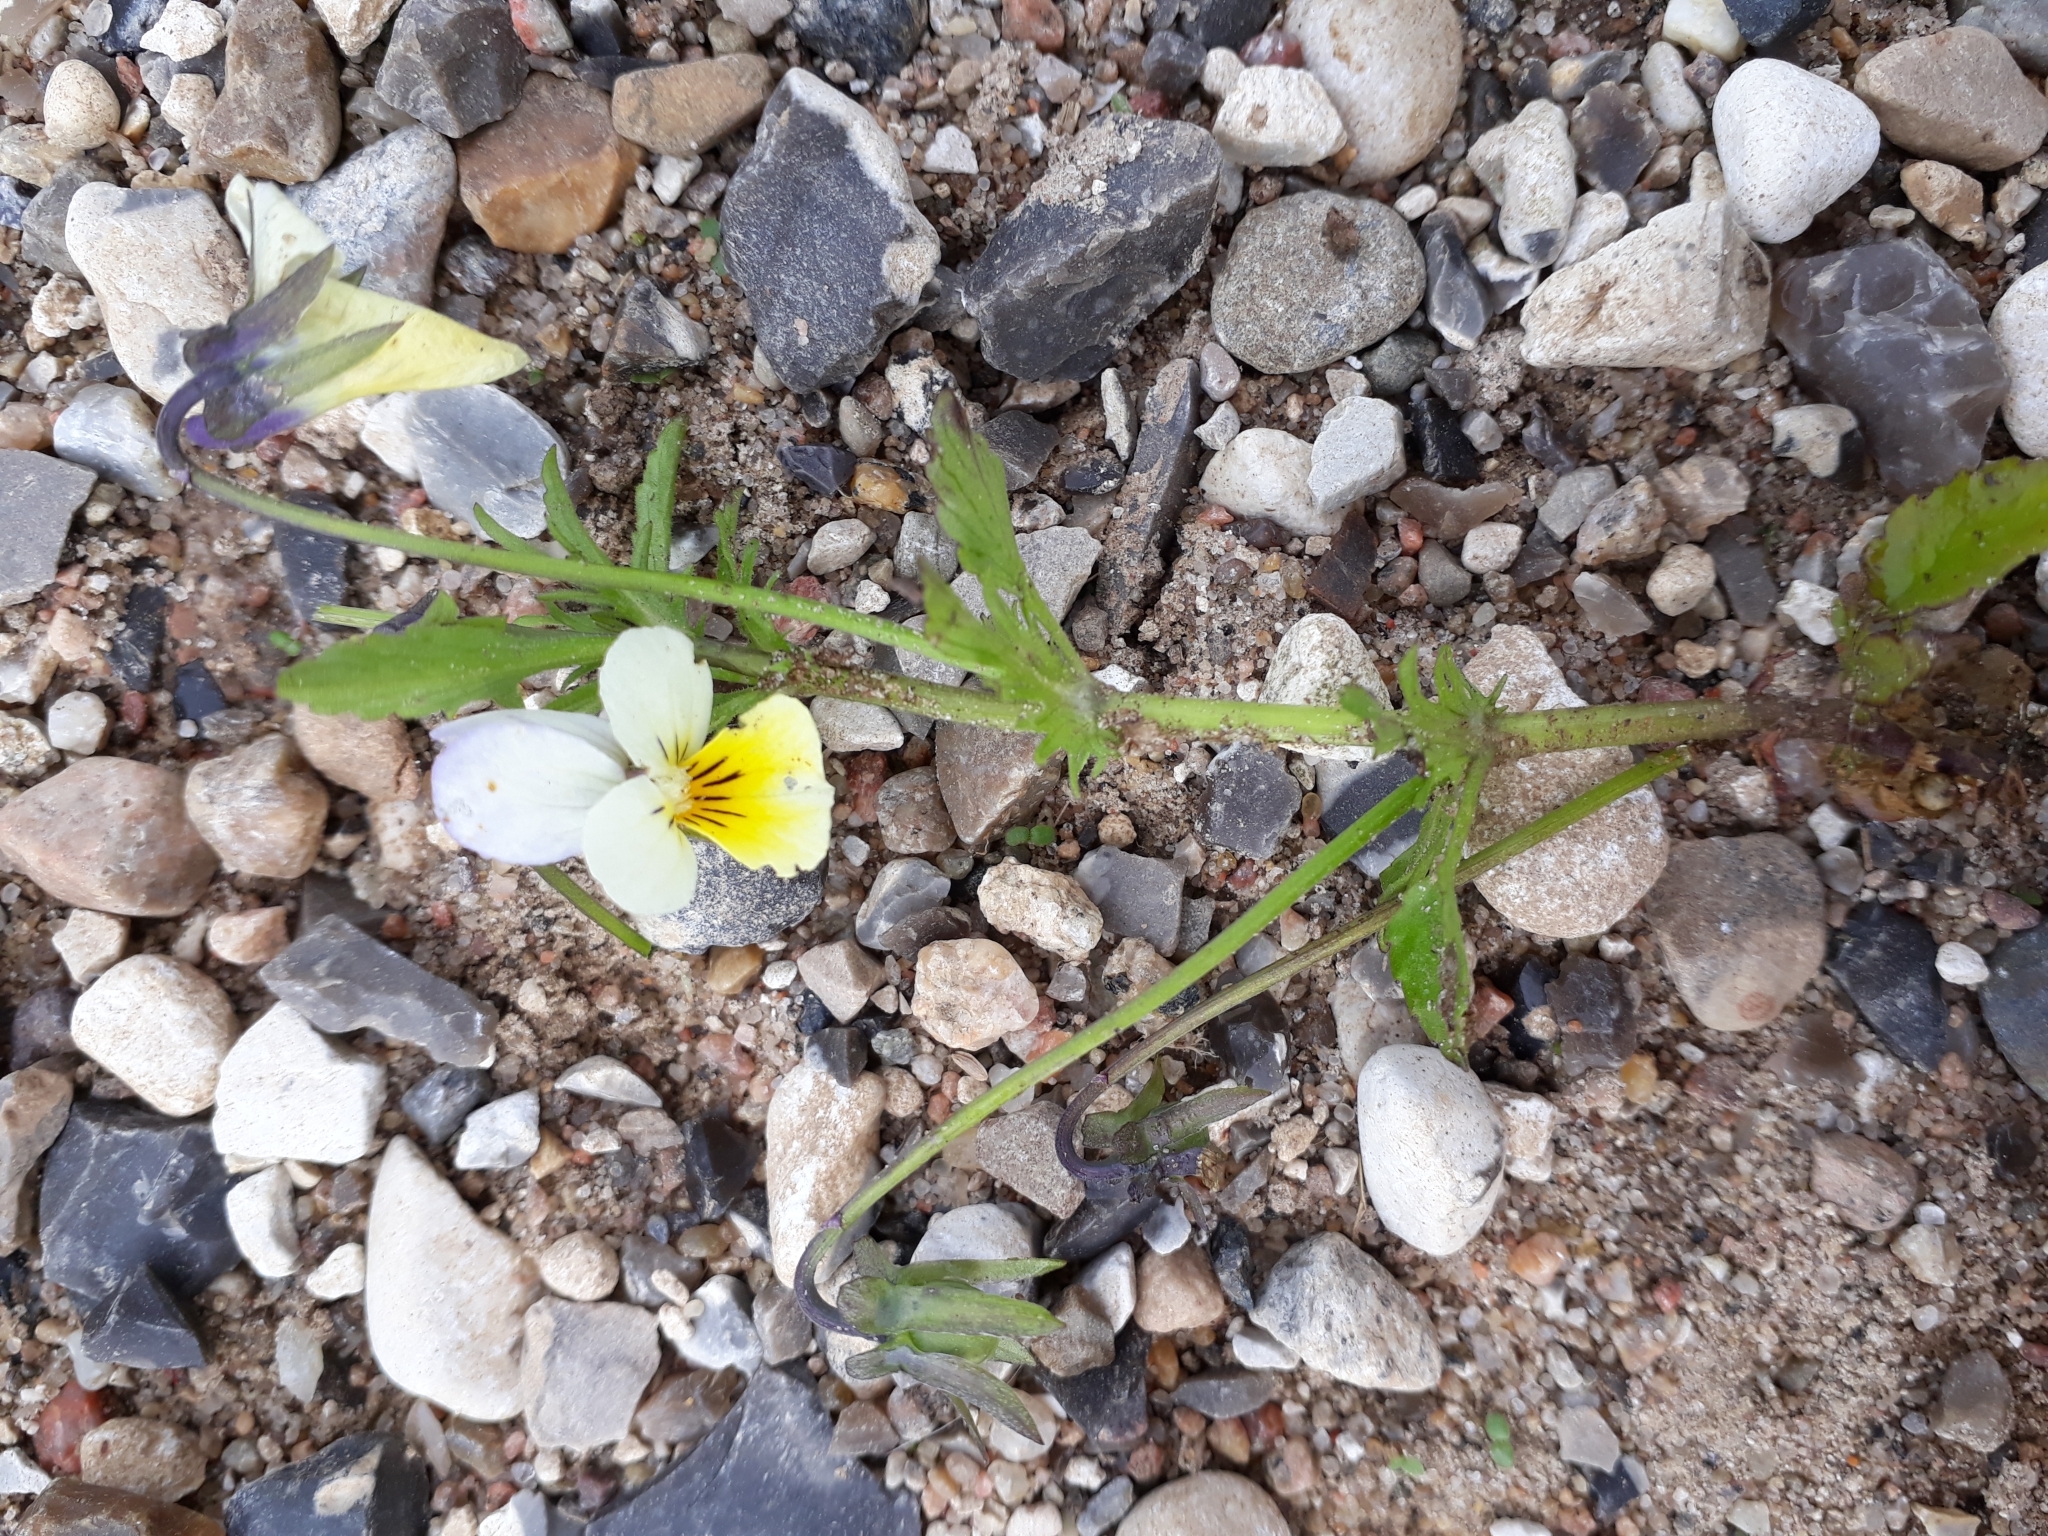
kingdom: Plantae
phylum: Tracheophyta
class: Magnoliopsida
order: Malpighiales
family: Violaceae
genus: Viola
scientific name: Viola arvensis
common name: Field pansy
